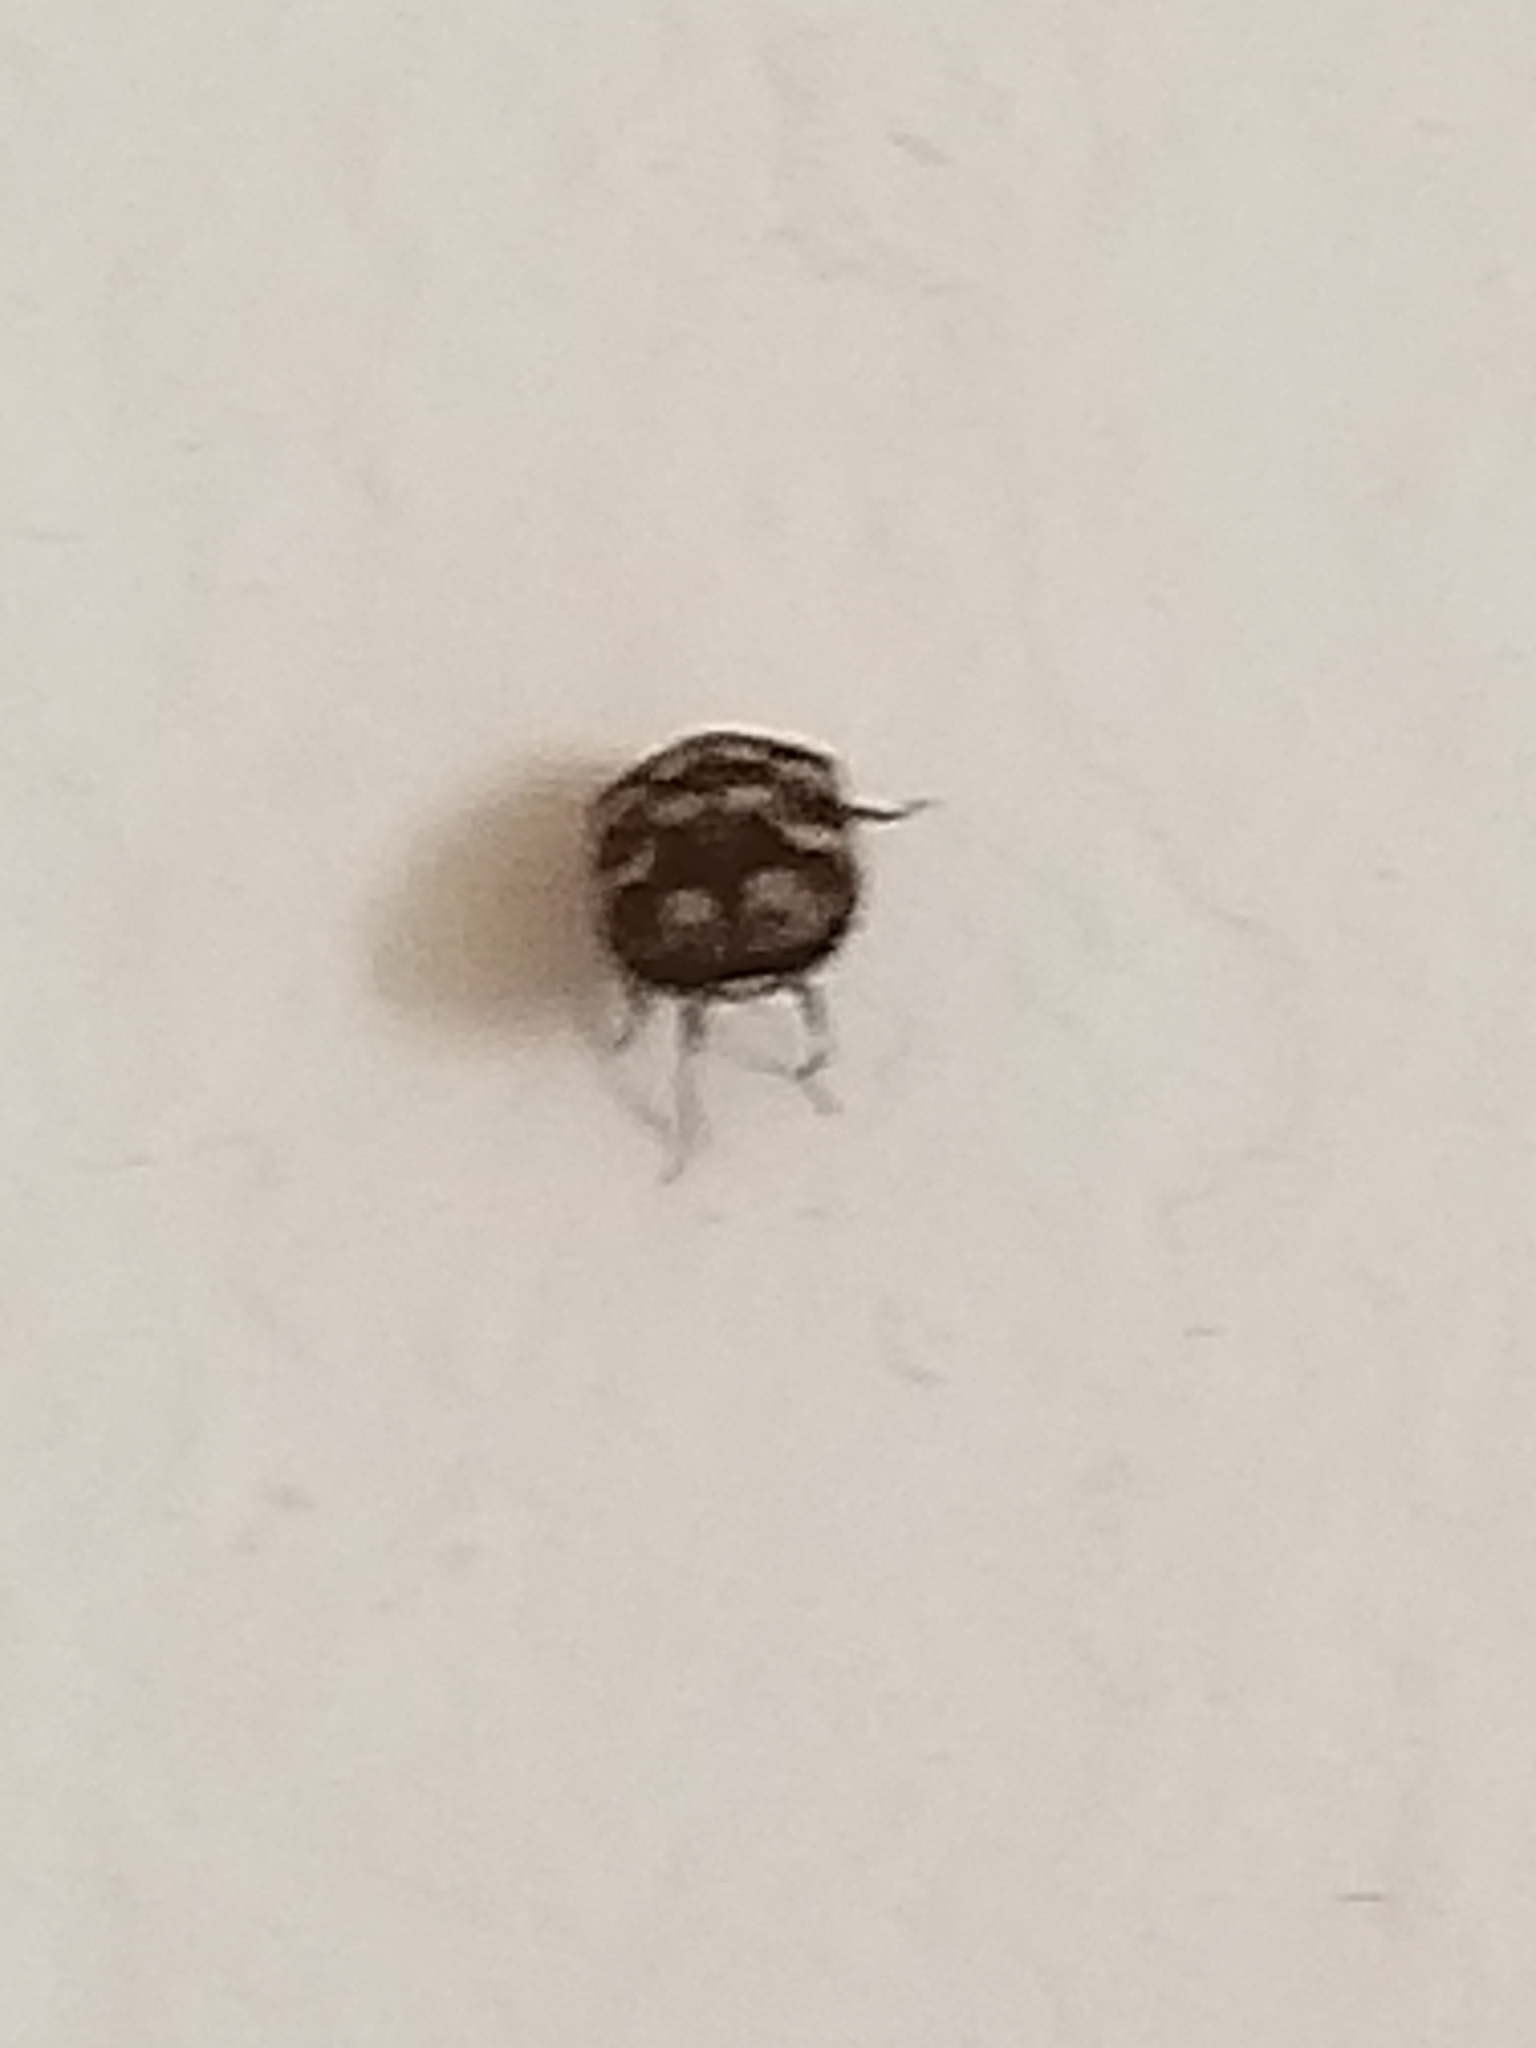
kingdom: Animalia
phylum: Arthropoda
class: Insecta
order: Coleoptera
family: Dermestidae
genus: Anthrenus
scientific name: Anthrenus verbasci
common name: Varied carpet beetle
